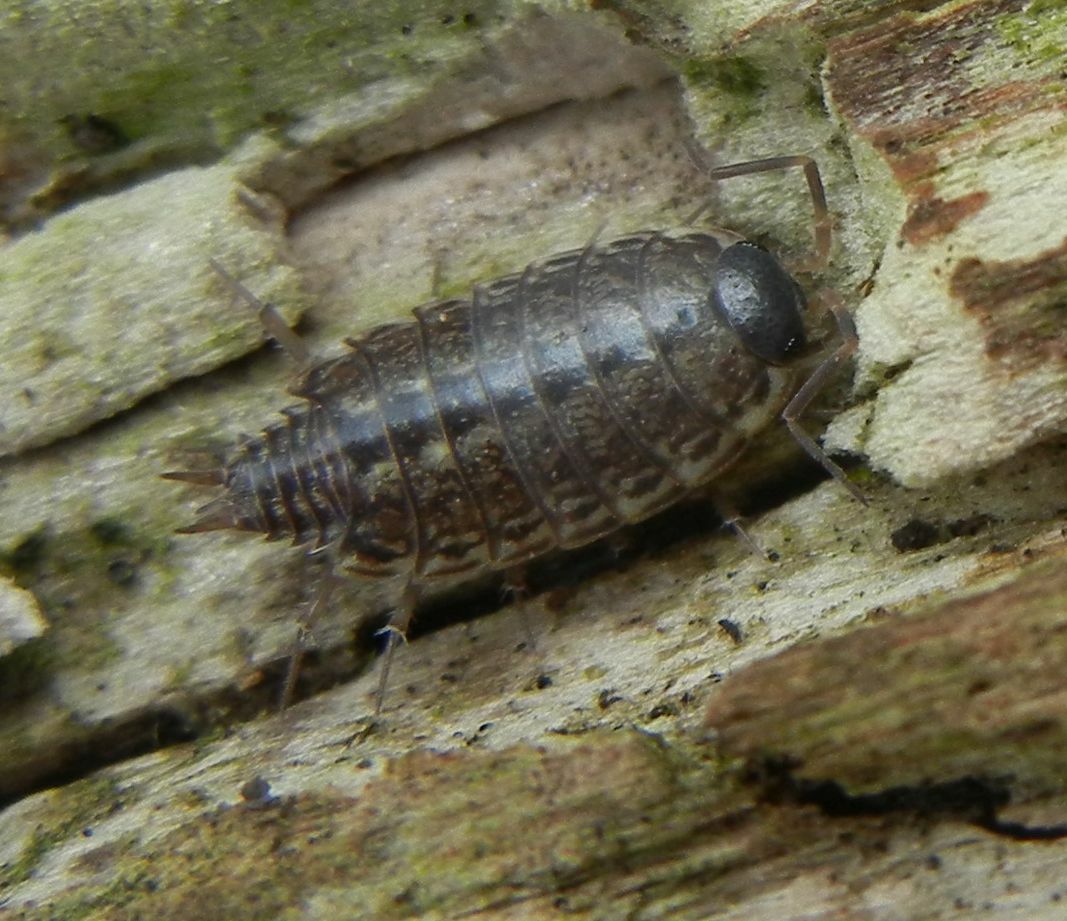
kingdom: Animalia
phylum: Arthropoda
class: Malacostraca
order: Isopoda
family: Philosciidae
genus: Philoscia
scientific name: Philoscia muscorum
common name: Common striped woodlouse
